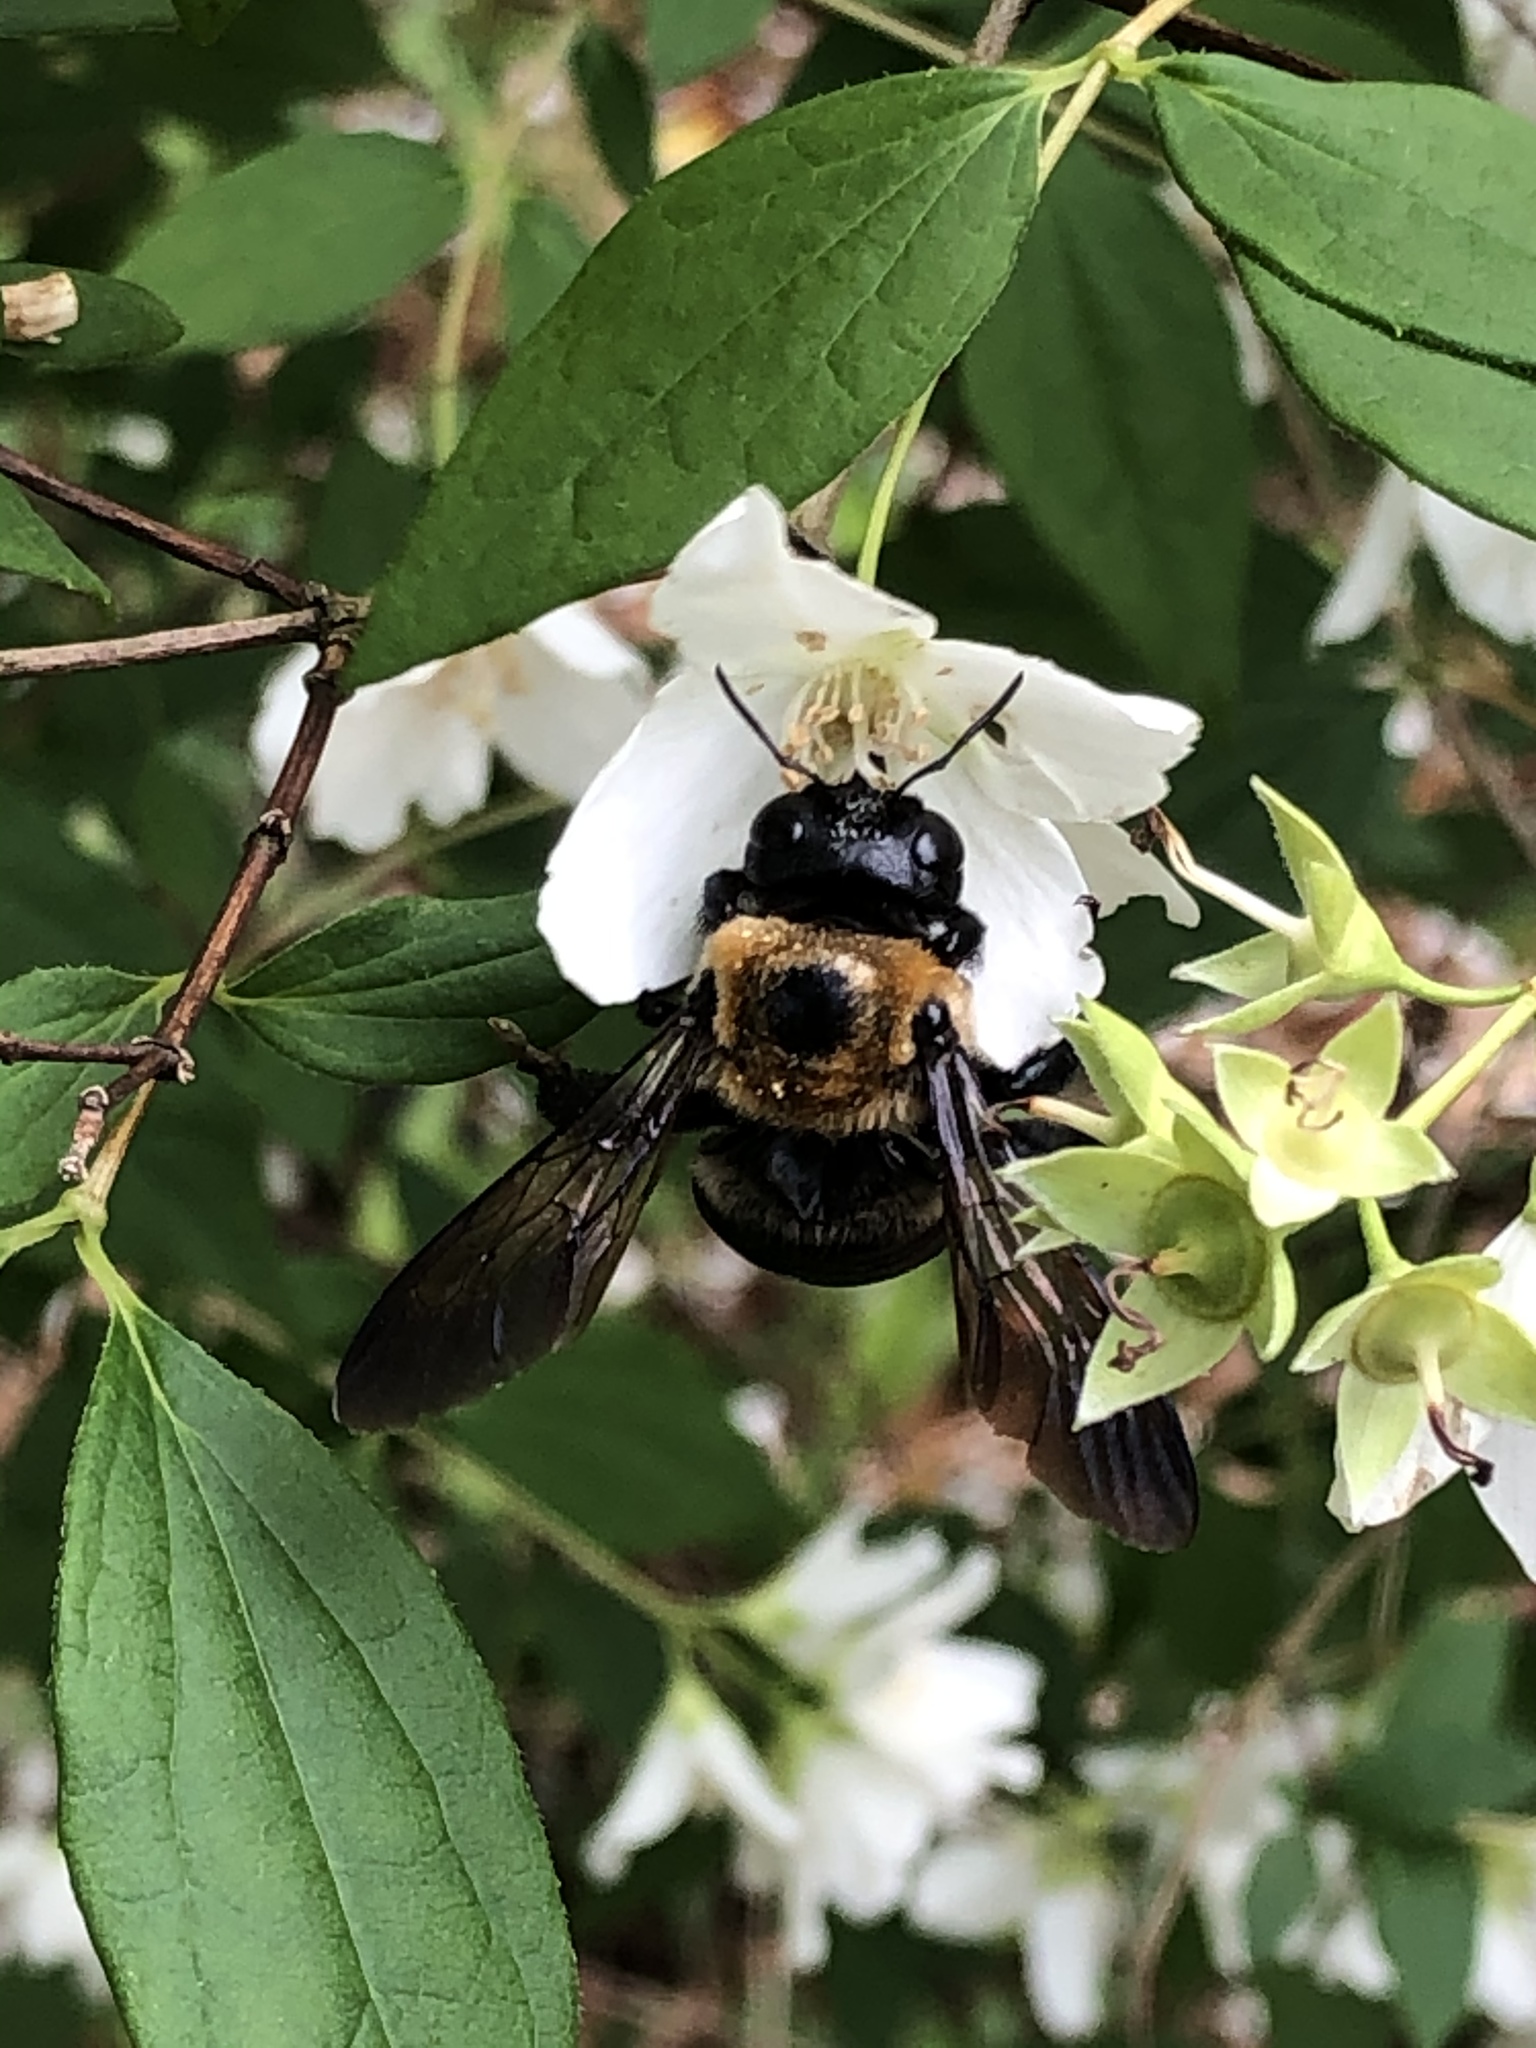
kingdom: Animalia
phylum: Arthropoda
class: Insecta
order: Hymenoptera
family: Apidae
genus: Xylocopa
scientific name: Xylocopa virginica
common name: Carpenter bee
